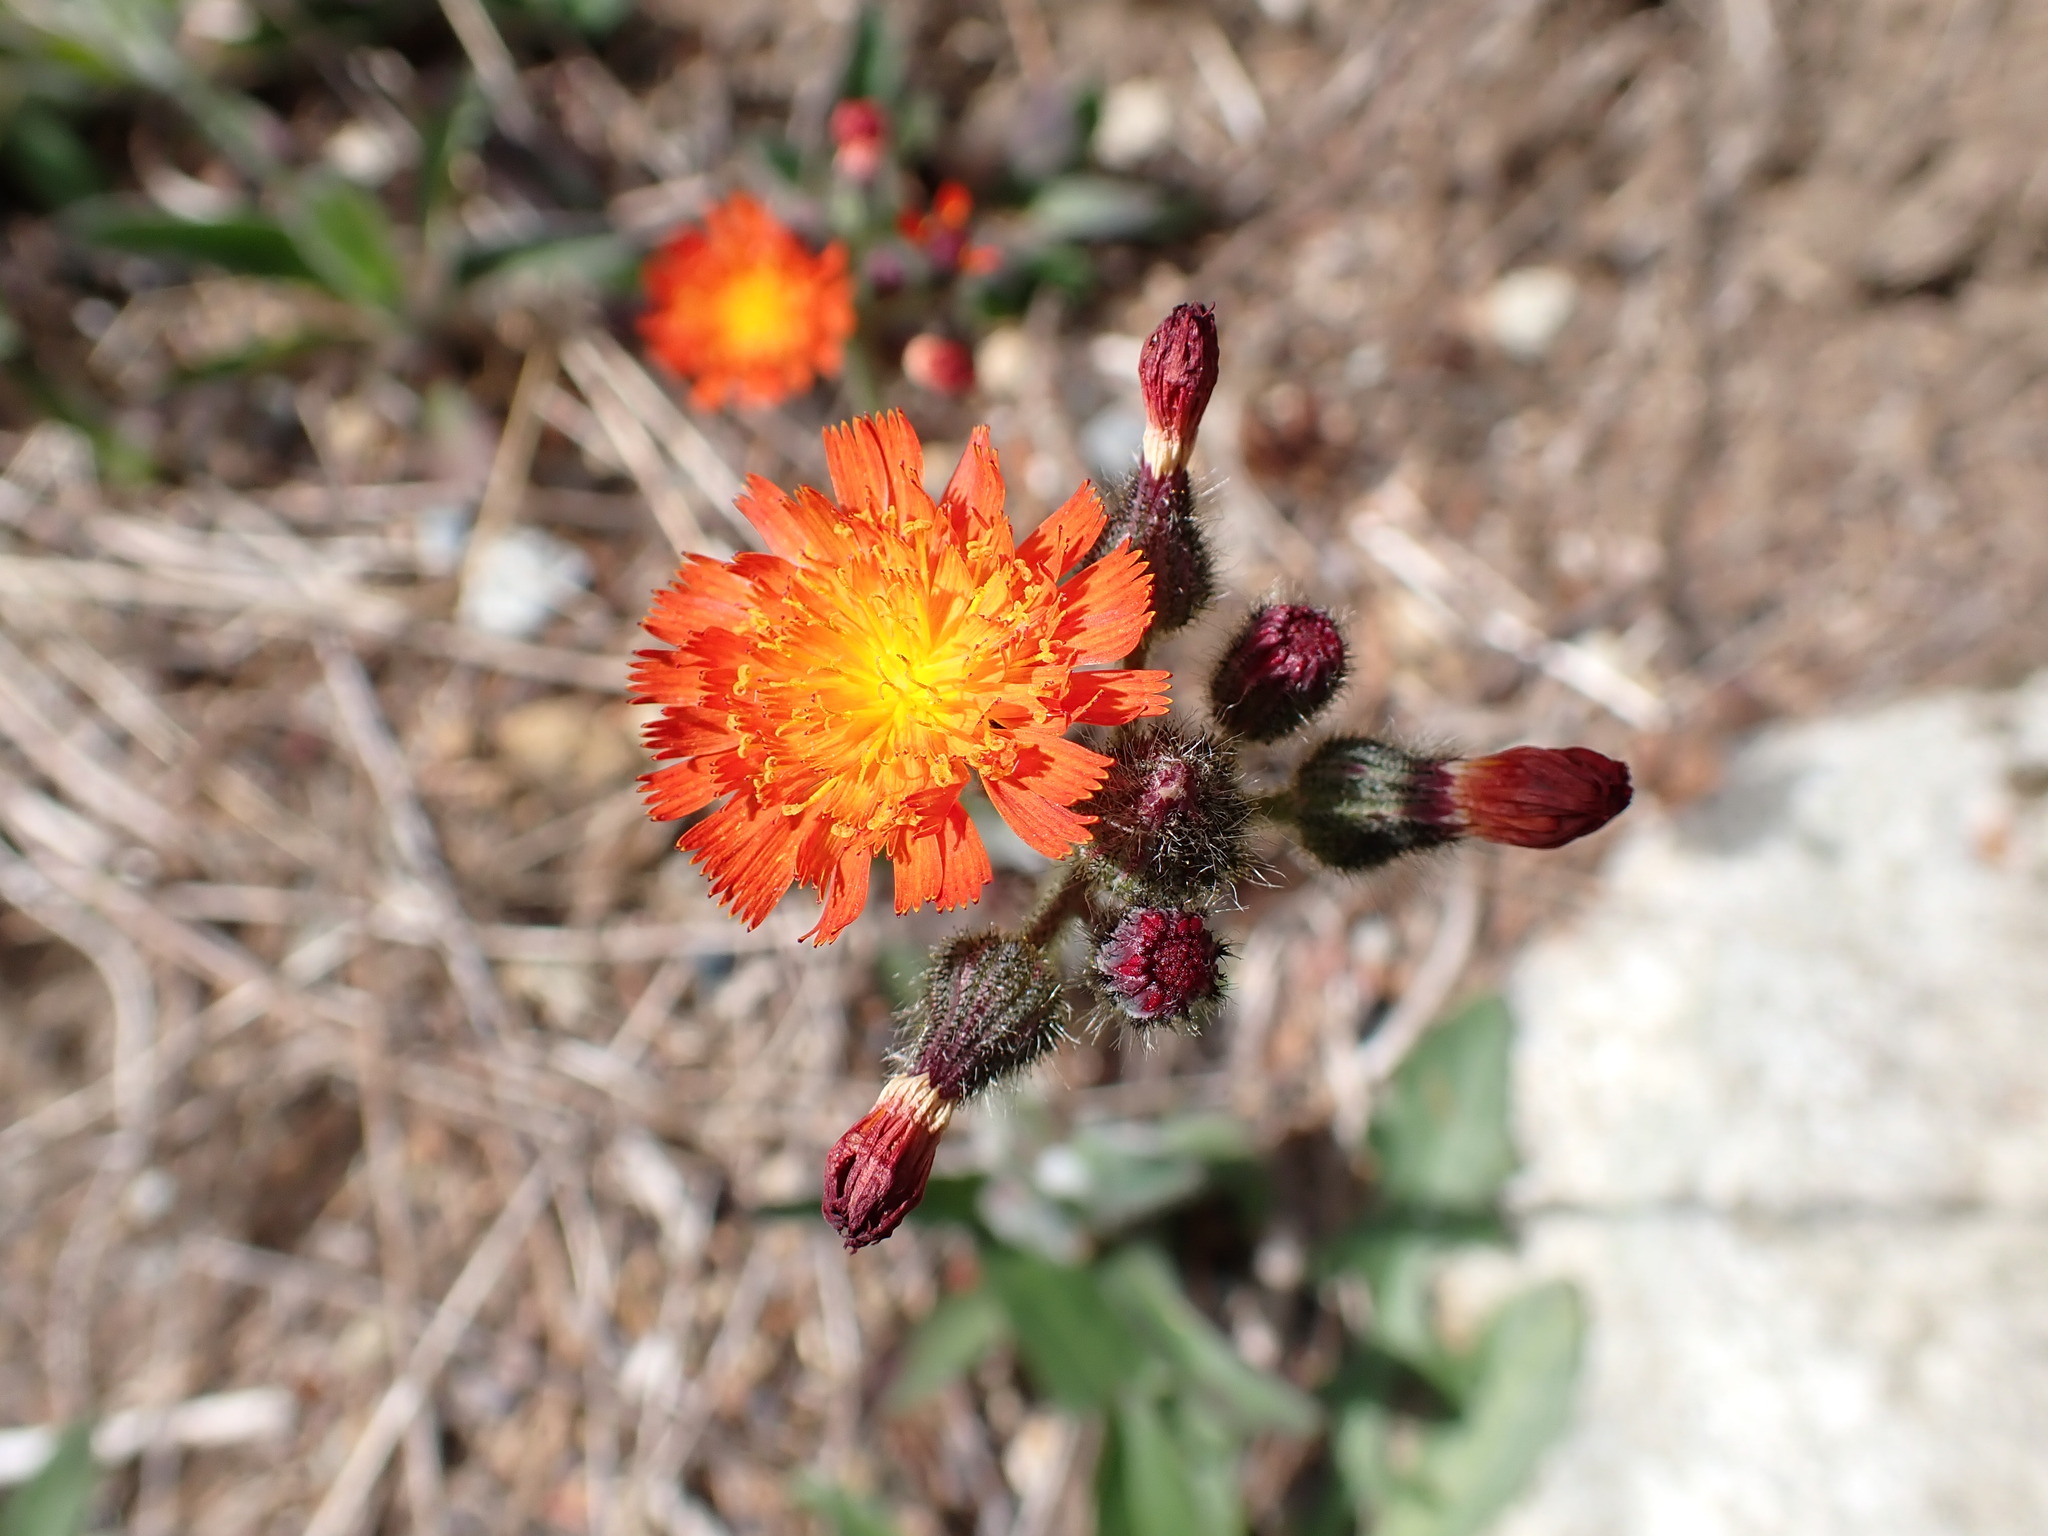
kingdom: Plantae
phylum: Tracheophyta
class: Magnoliopsida
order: Asterales
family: Asteraceae
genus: Pilosella
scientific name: Pilosella aurantiaca
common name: Fox-and-cubs
